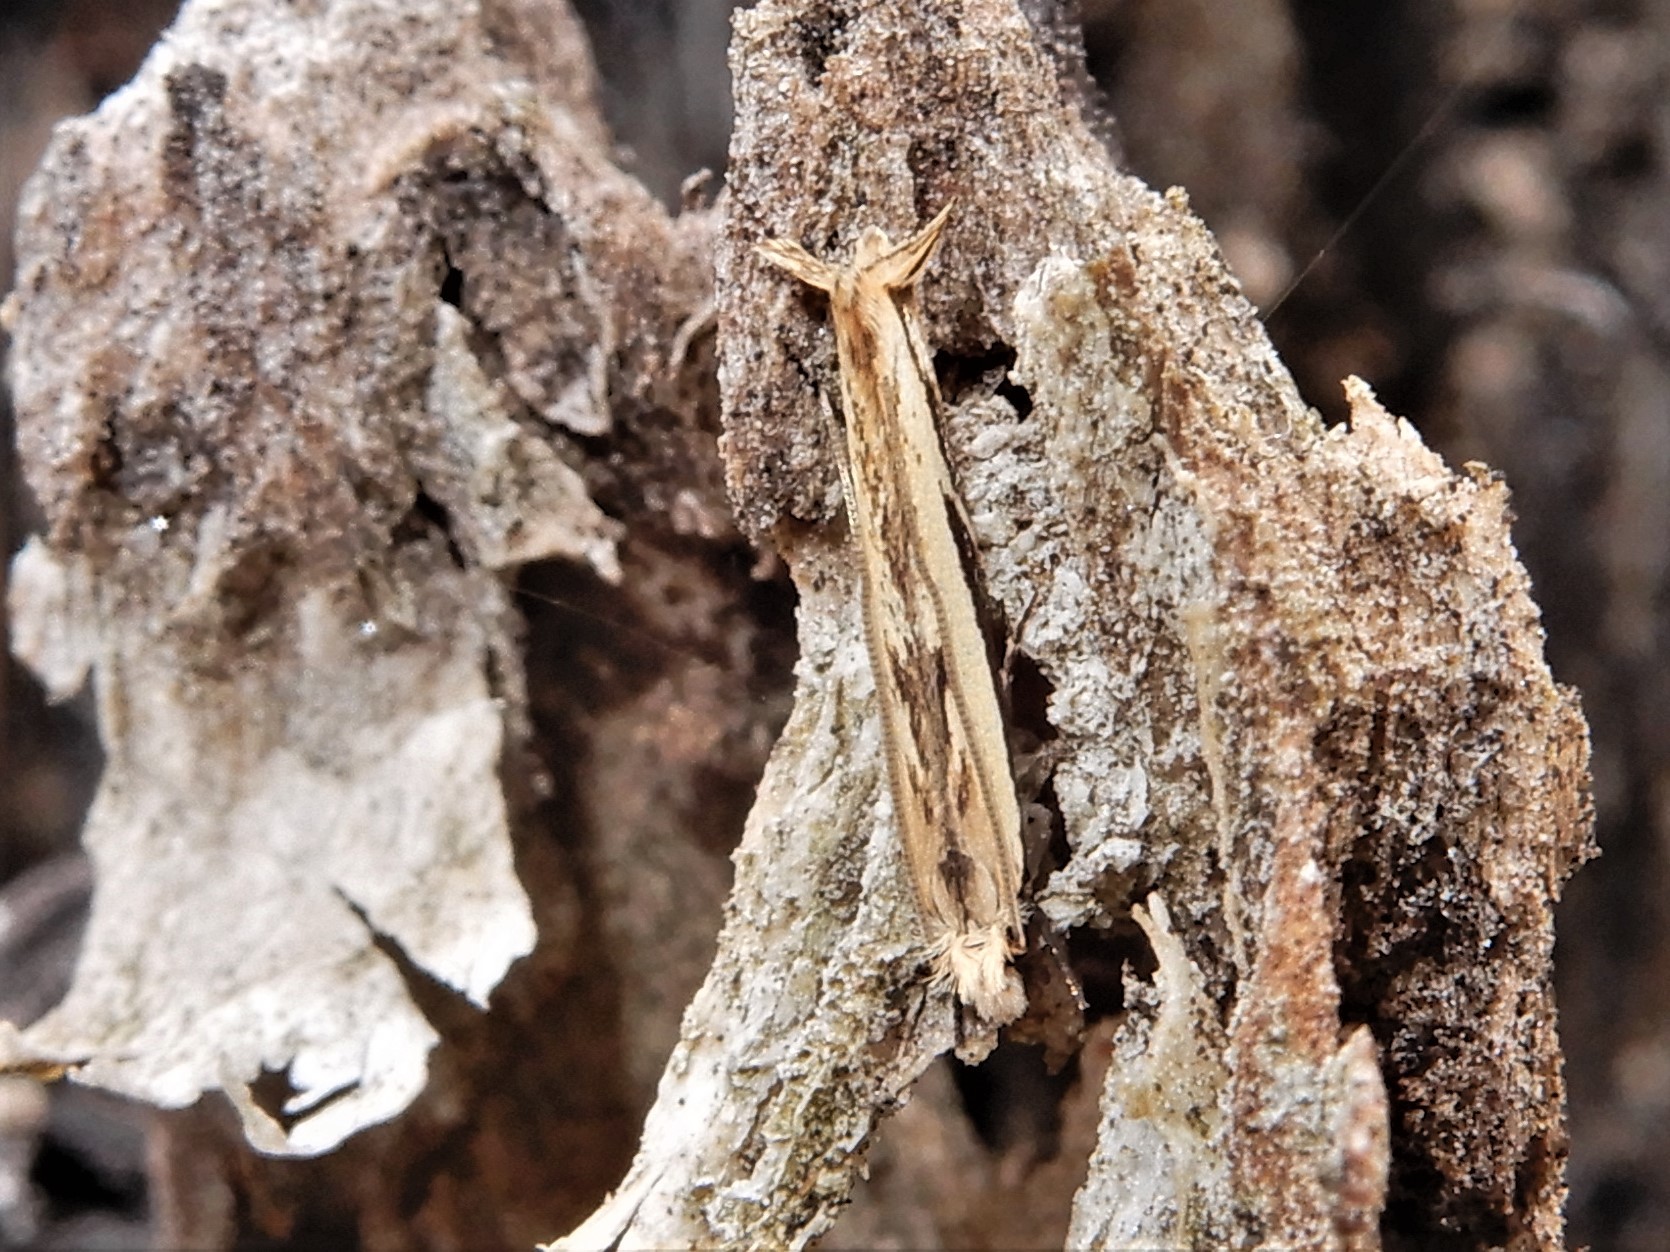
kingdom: Animalia
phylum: Arthropoda
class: Insecta
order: Lepidoptera
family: Tineidae
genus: Erechthias
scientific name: Erechthias terminella
